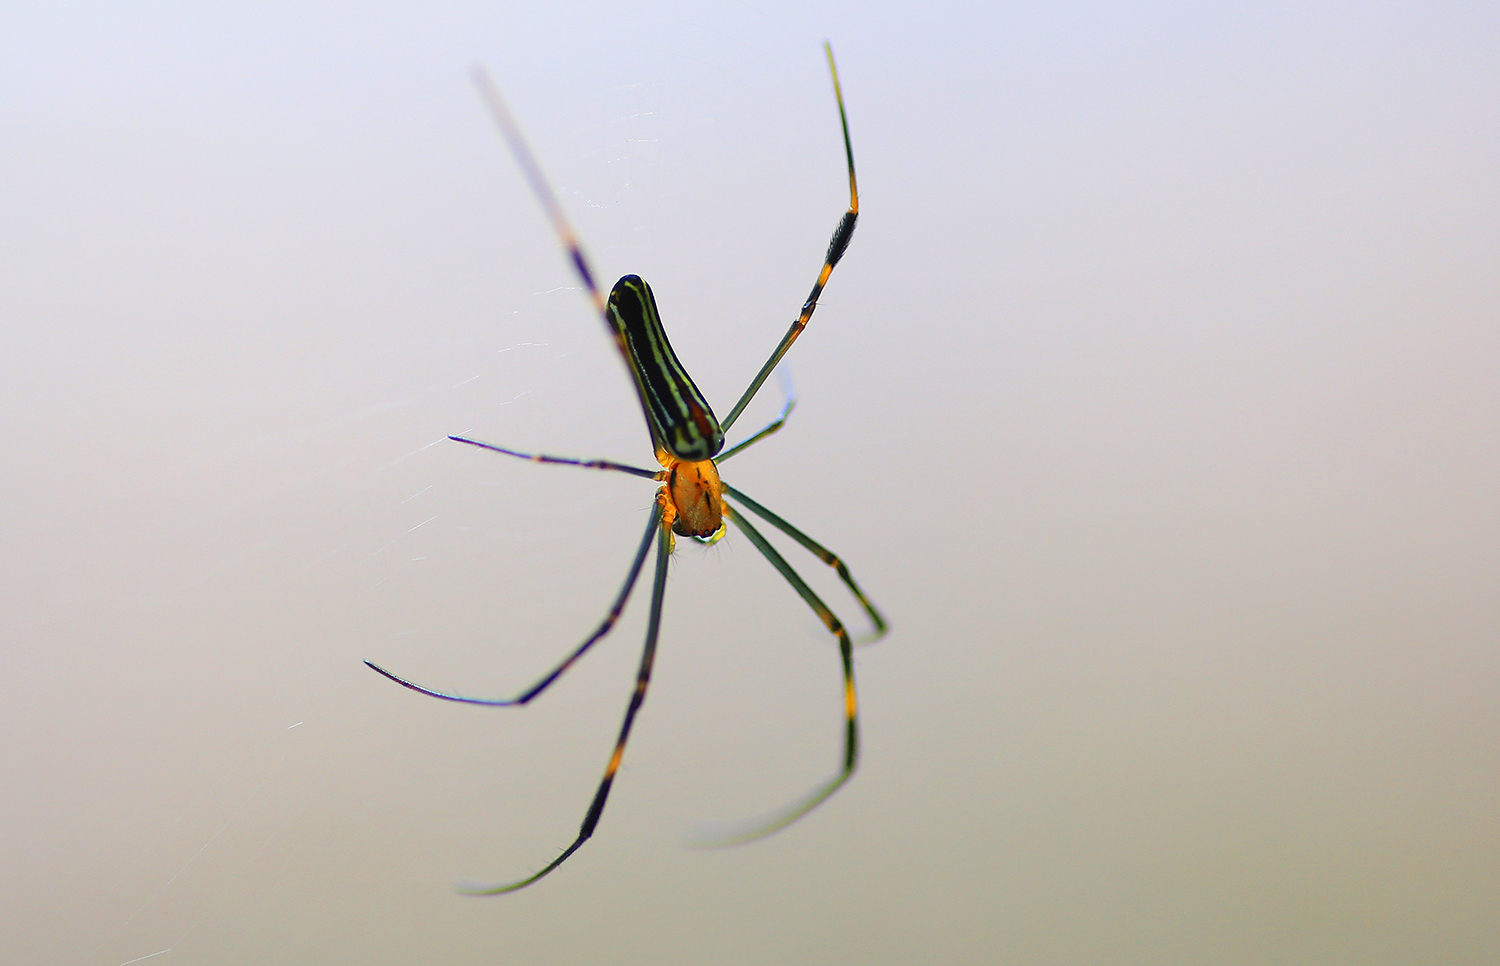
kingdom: Animalia
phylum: Arthropoda
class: Arachnida
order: Araneae
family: Araneidae
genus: Nephila
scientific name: Nephila pilipes
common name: Giant golden orb weaver
